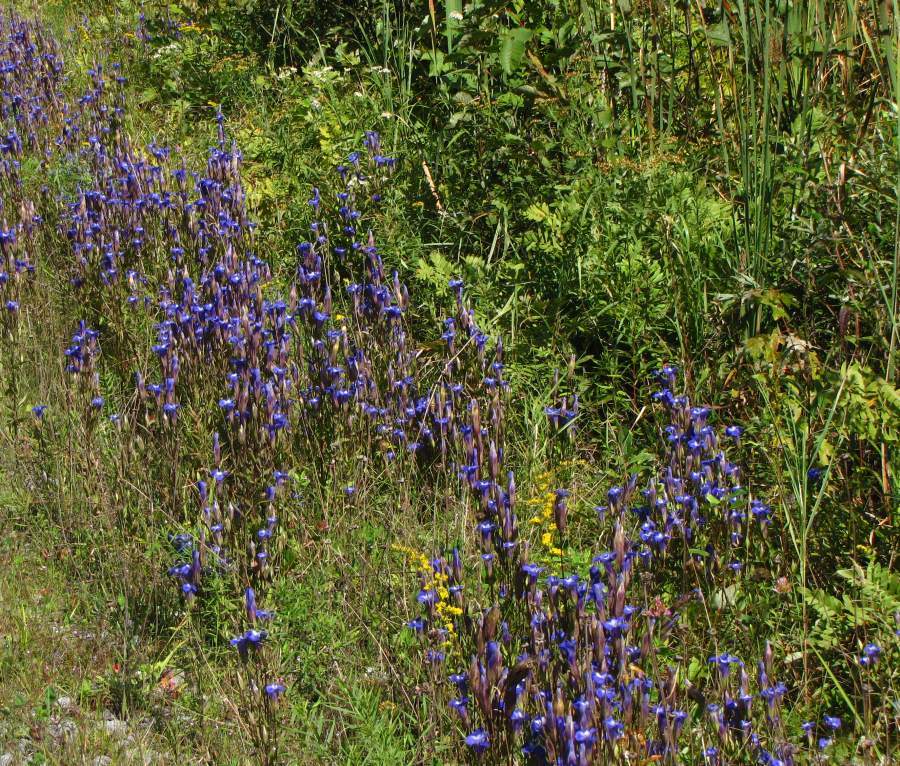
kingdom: Plantae
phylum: Tracheophyta
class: Magnoliopsida
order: Gentianales
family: Gentianaceae
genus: Gentianopsis
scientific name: Gentianopsis crinita
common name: Fringed-gentian
